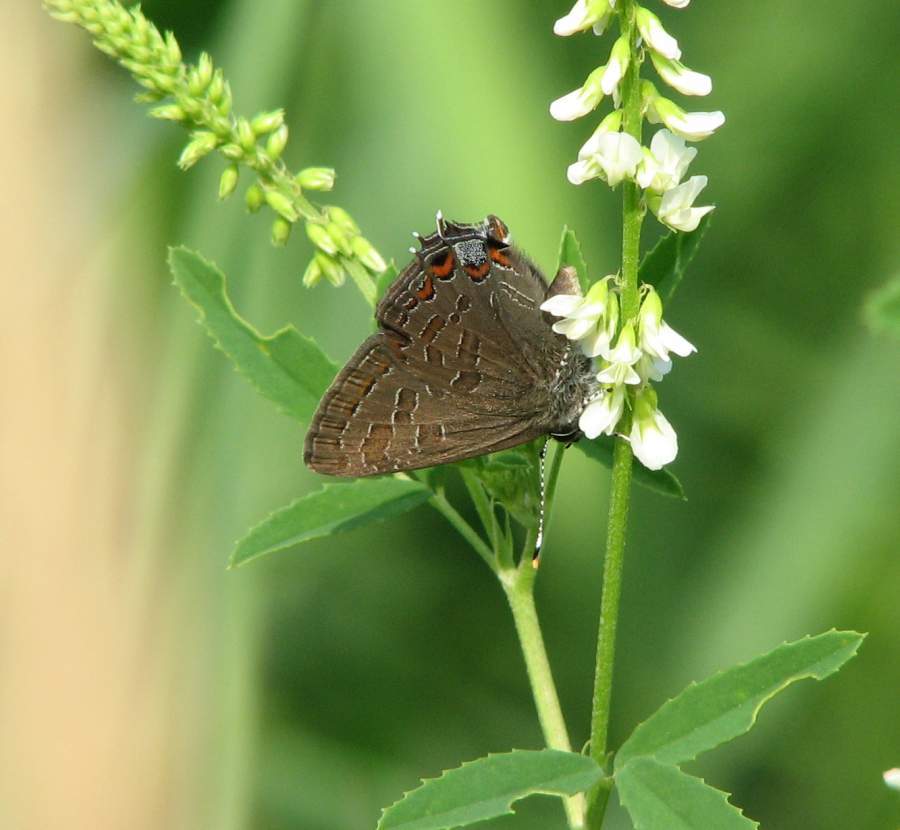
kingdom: Animalia
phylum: Arthropoda
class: Insecta
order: Lepidoptera
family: Lycaenidae
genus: Satyrium
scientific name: Satyrium liparops
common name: Striped hairstreak
